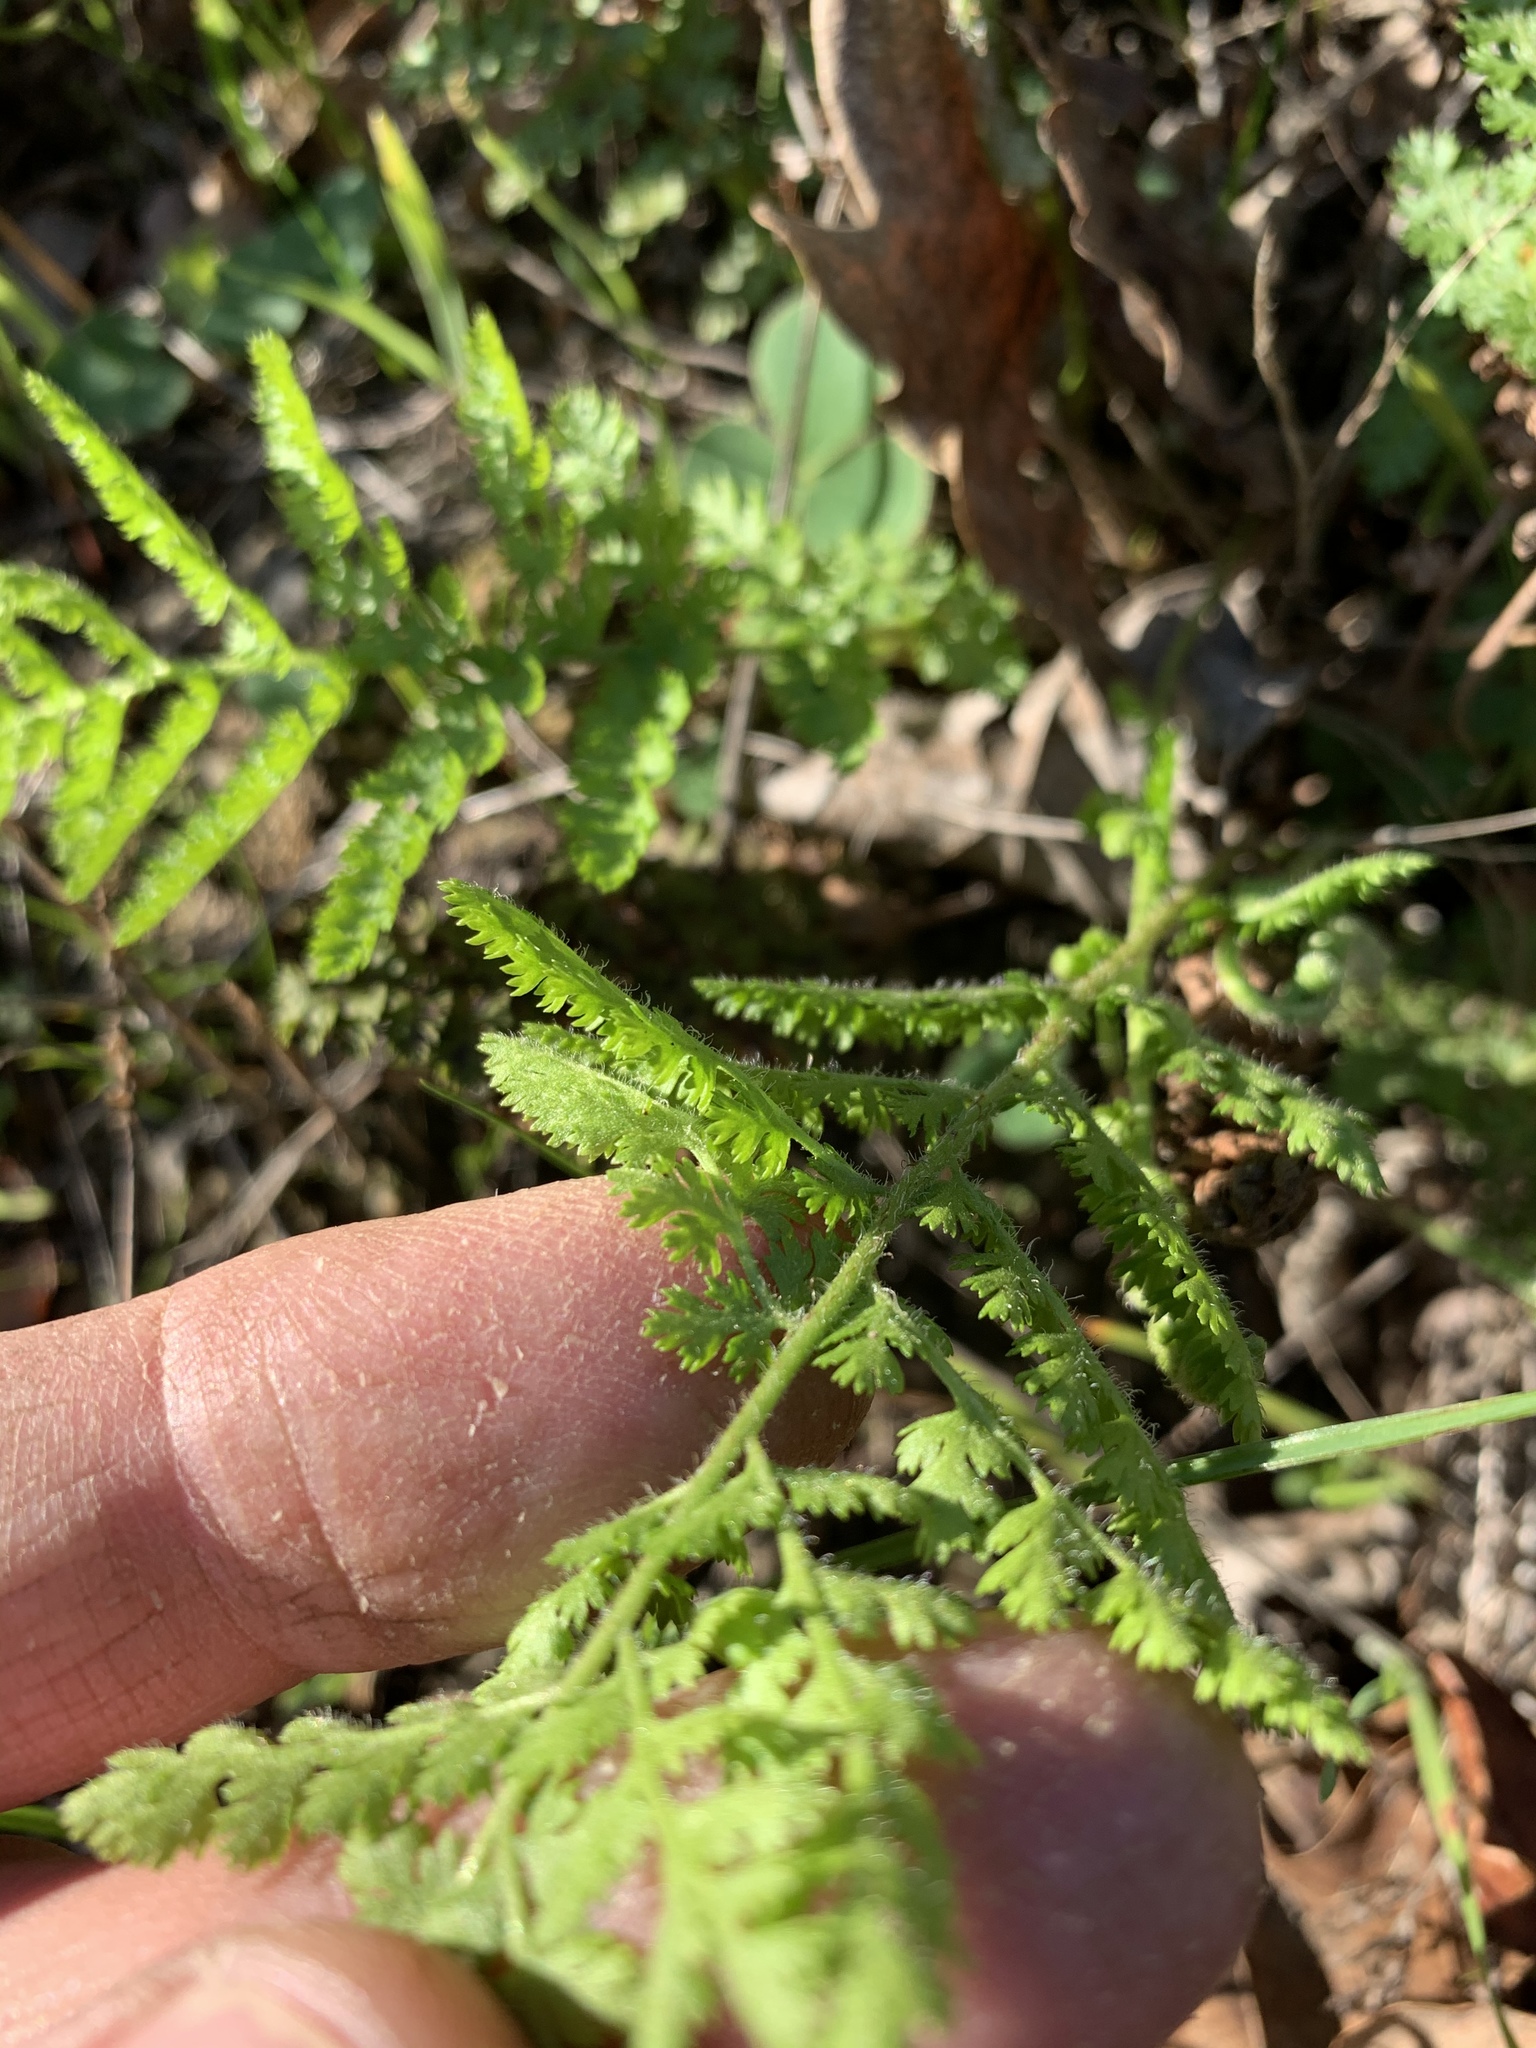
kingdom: Plantae
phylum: Tracheophyta
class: Polypodiopsida
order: Schizaeales
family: Anemiaceae
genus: Anemia
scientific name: Anemia caffrorum
